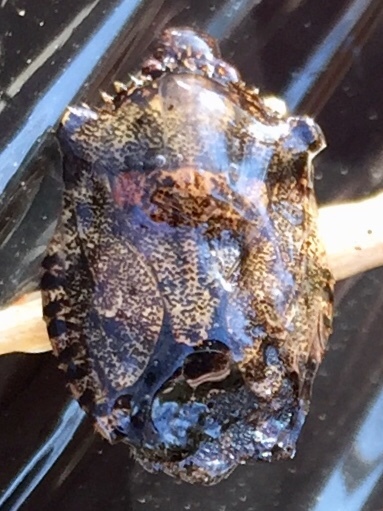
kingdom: Animalia
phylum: Arthropoda
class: Insecta
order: Hemiptera
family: Pentatomidae
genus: Brochymena
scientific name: Brochymena arborea
